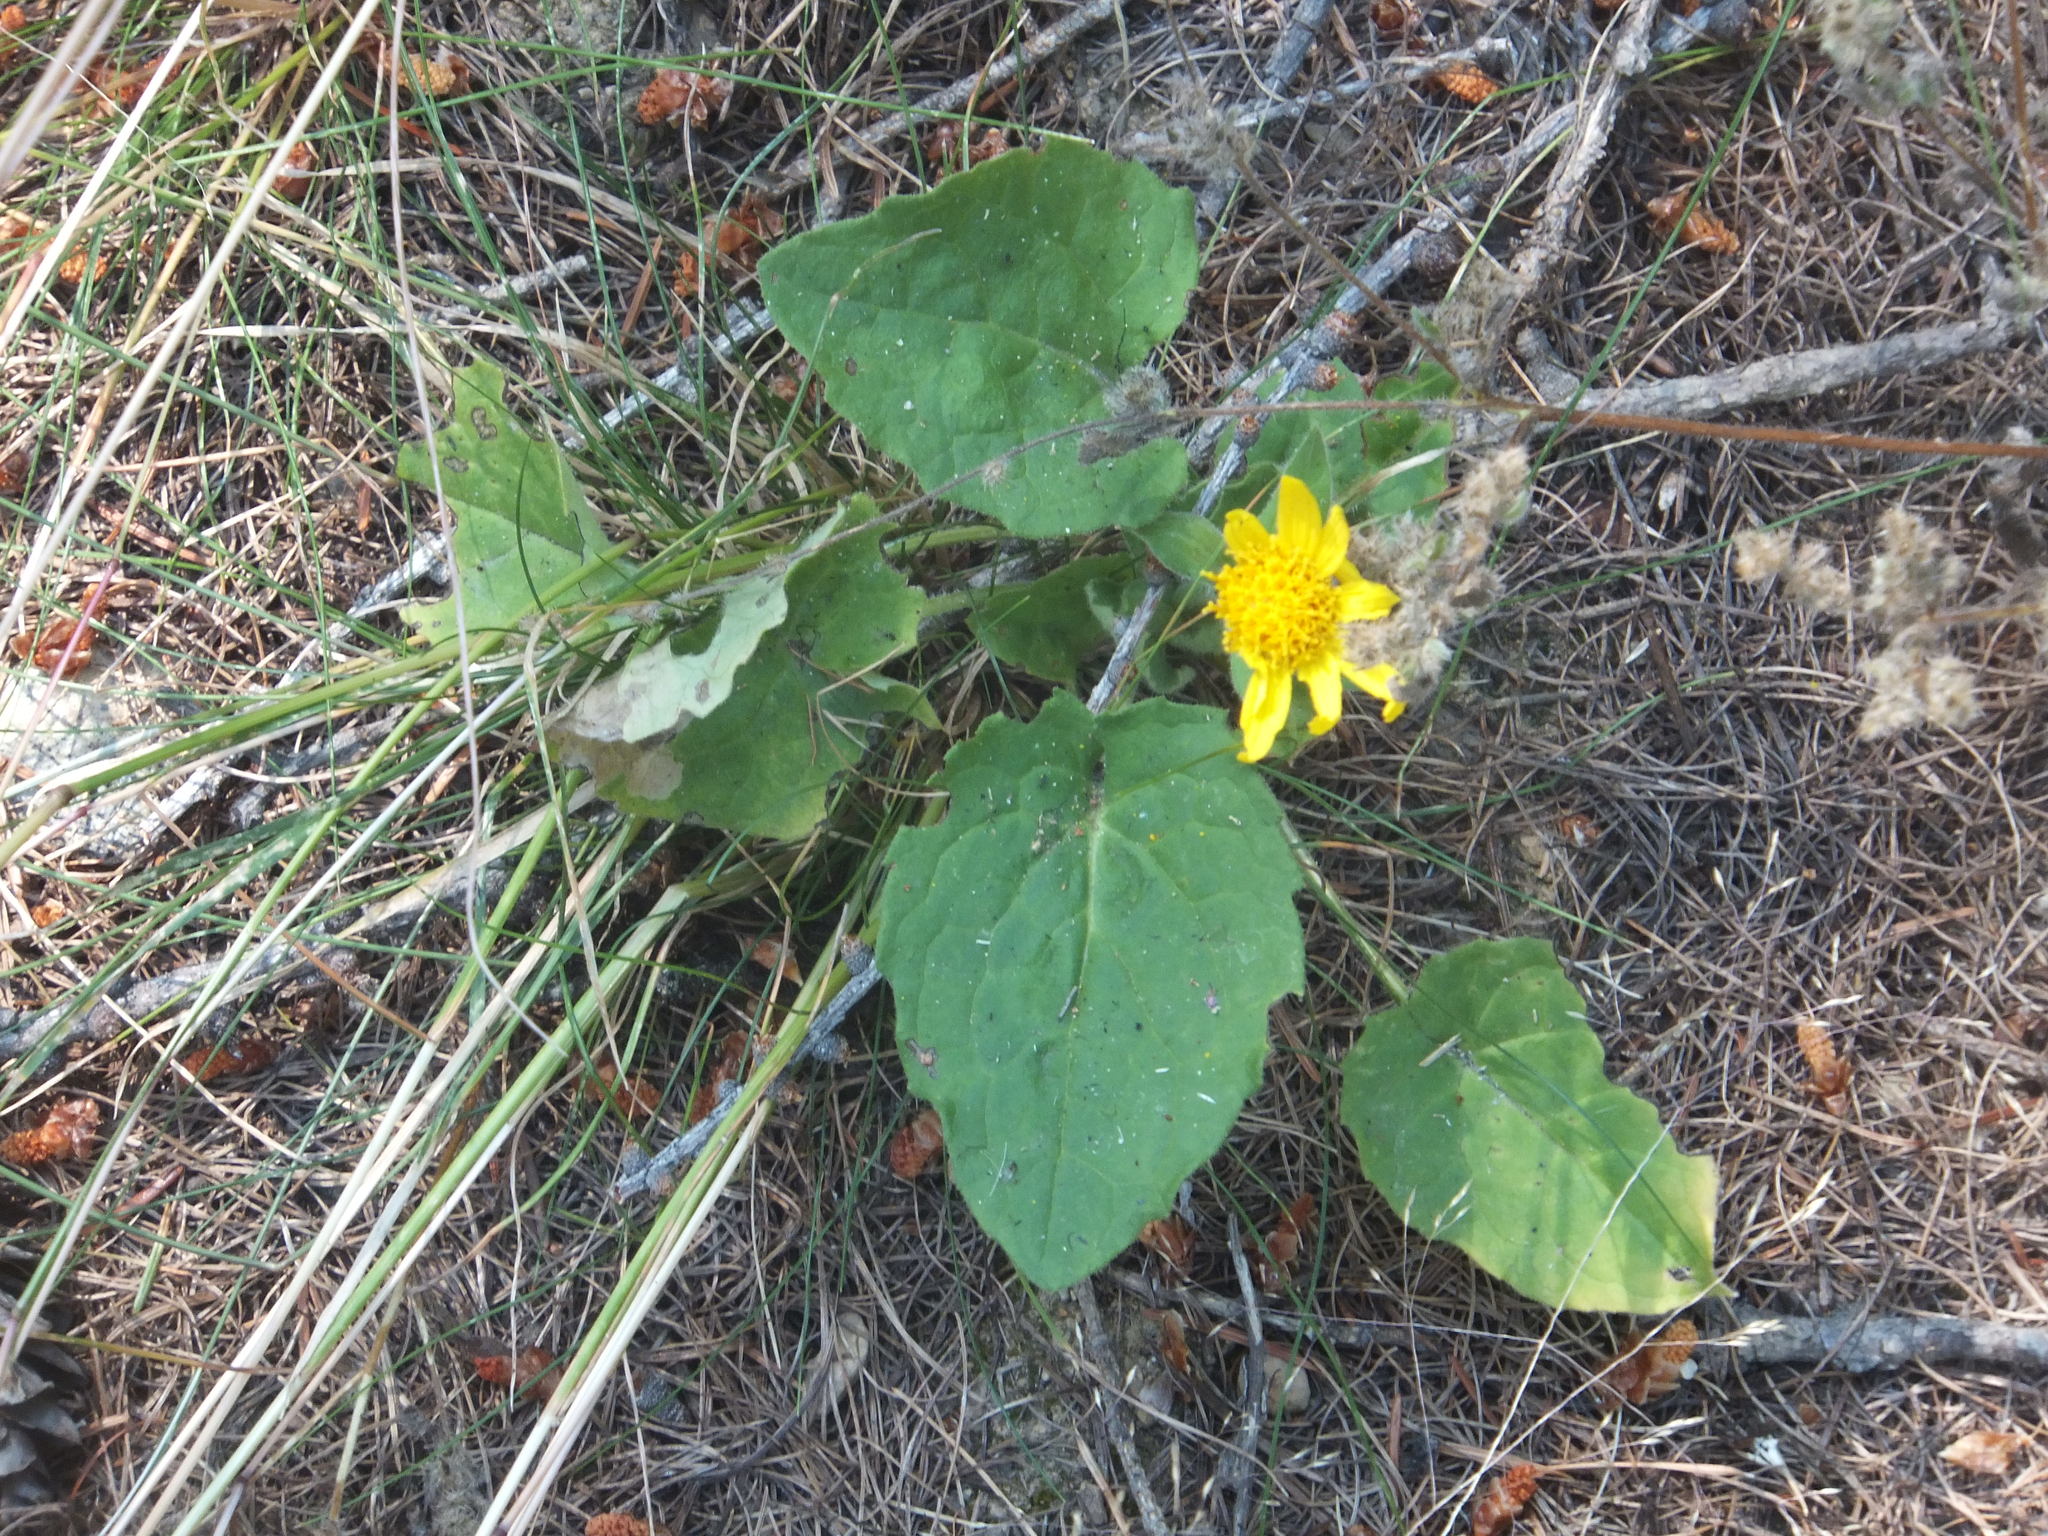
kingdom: Plantae
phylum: Tracheophyta
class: Magnoliopsida
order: Asterales
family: Asteraceae
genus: Arnica
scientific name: Arnica cordifolia
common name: Heart-leaf arnica
